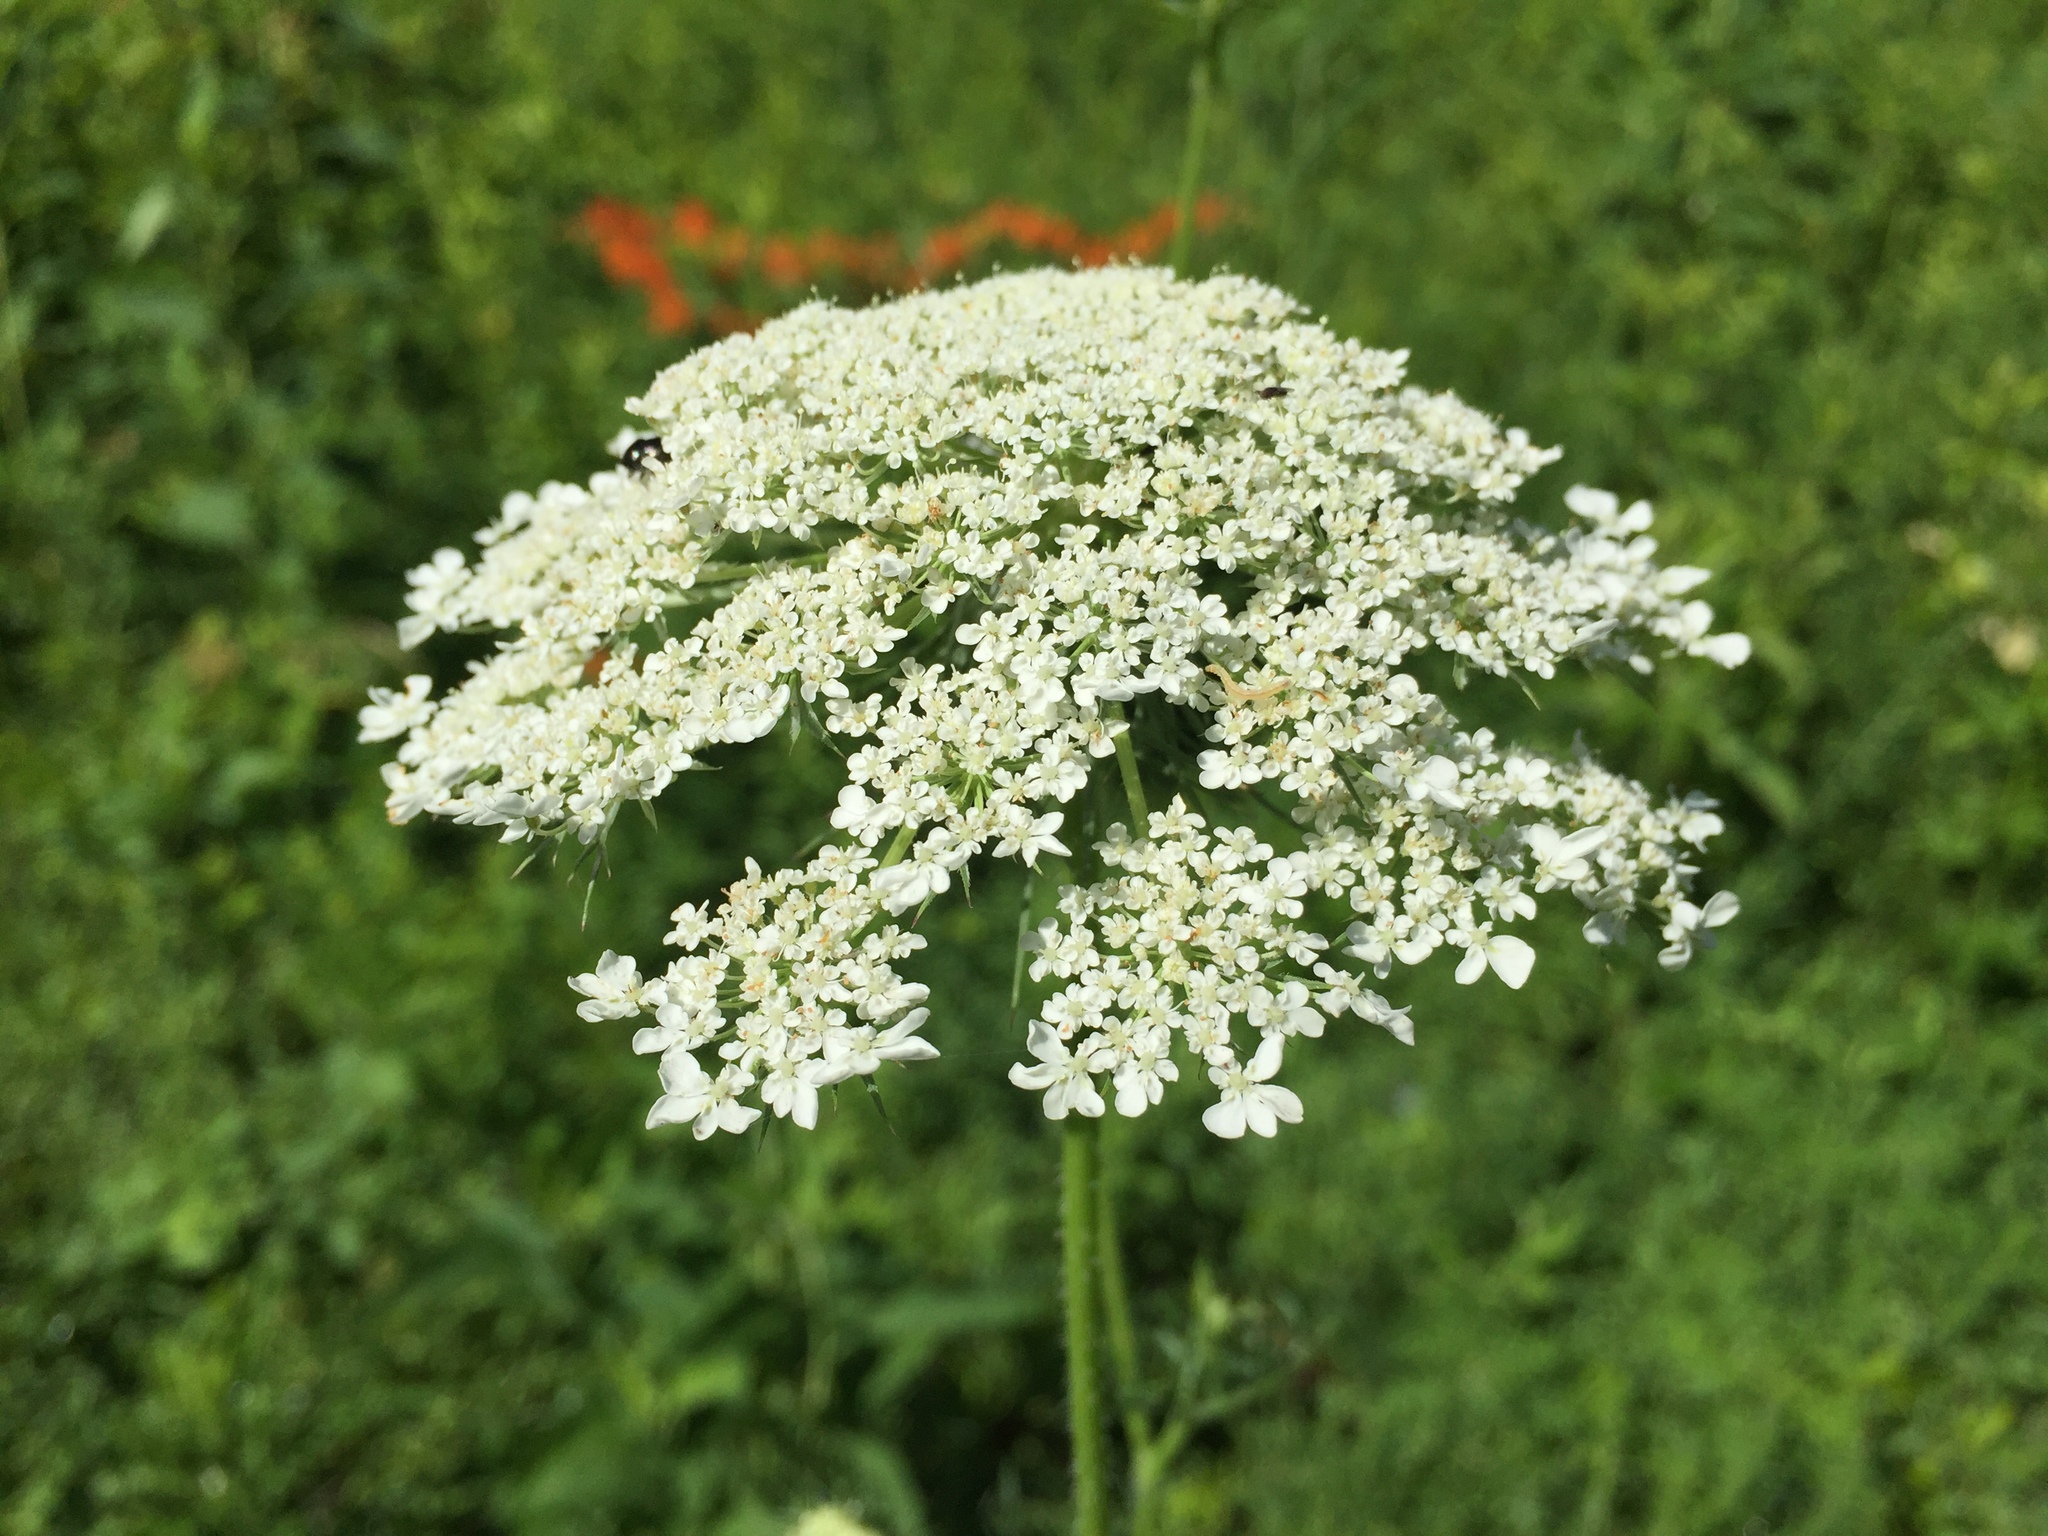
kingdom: Plantae
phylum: Tracheophyta
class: Magnoliopsida
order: Apiales
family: Apiaceae
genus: Daucus
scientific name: Daucus carota
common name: Wild carrot
